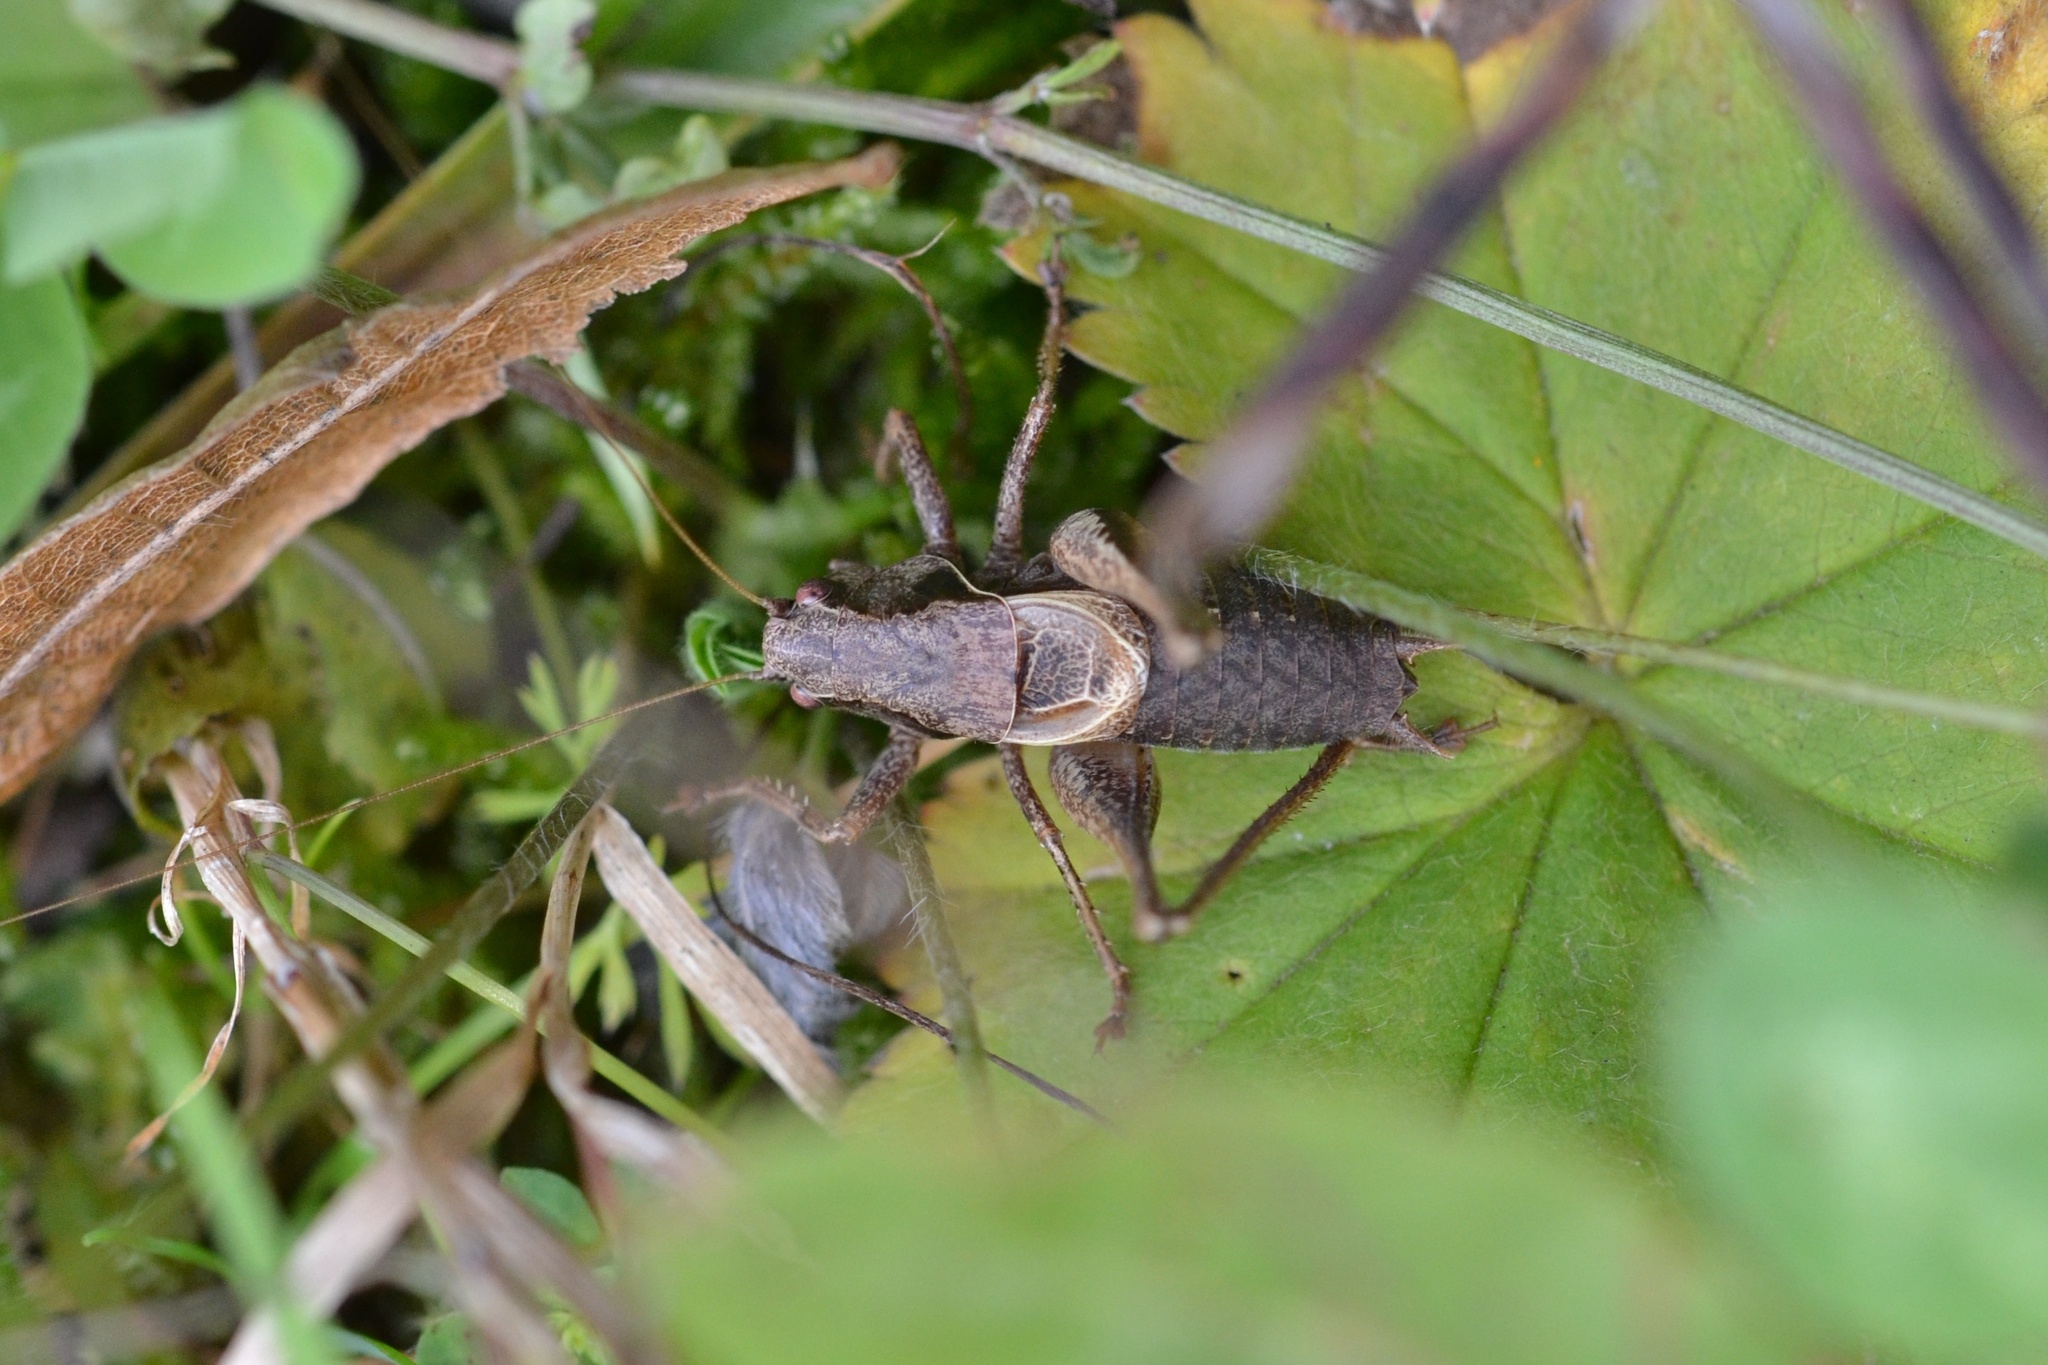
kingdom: Animalia
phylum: Arthropoda
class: Insecta
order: Orthoptera
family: Tettigoniidae
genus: Pholidoptera
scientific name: Pholidoptera griseoaptera
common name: Dark bush-cricket
